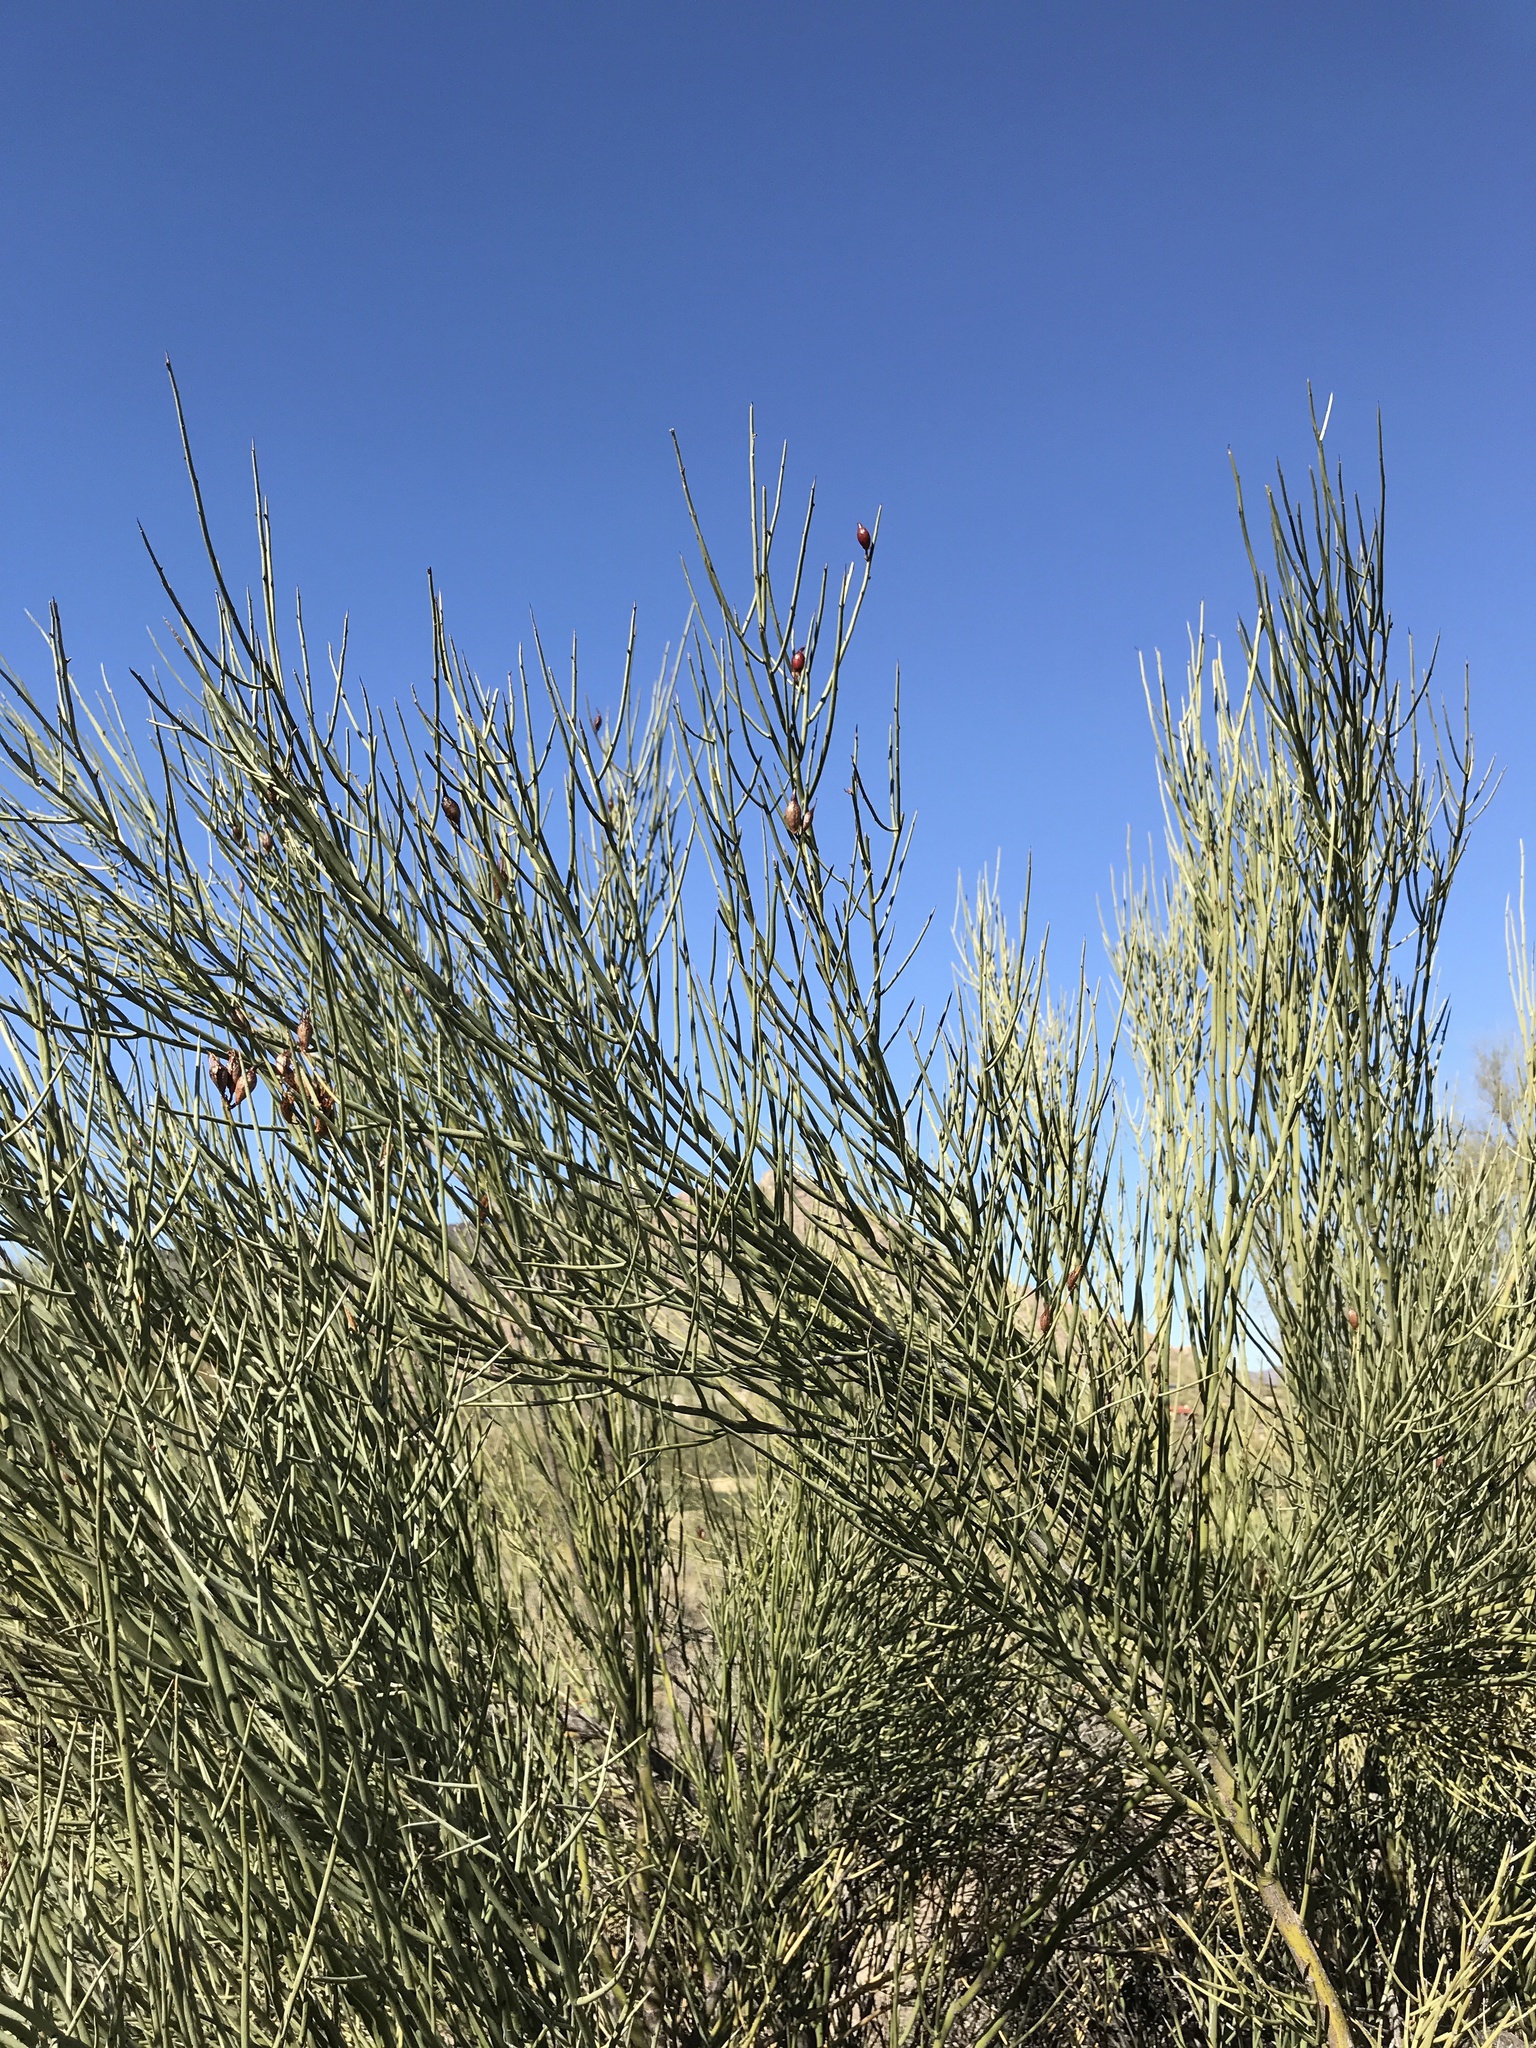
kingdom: Plantae
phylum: Tracheophyta
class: Magnoliopsida
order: Celastrales
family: Celastraceae
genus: Canotia
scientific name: Canotia holacantha
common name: Crucifixion thorns
